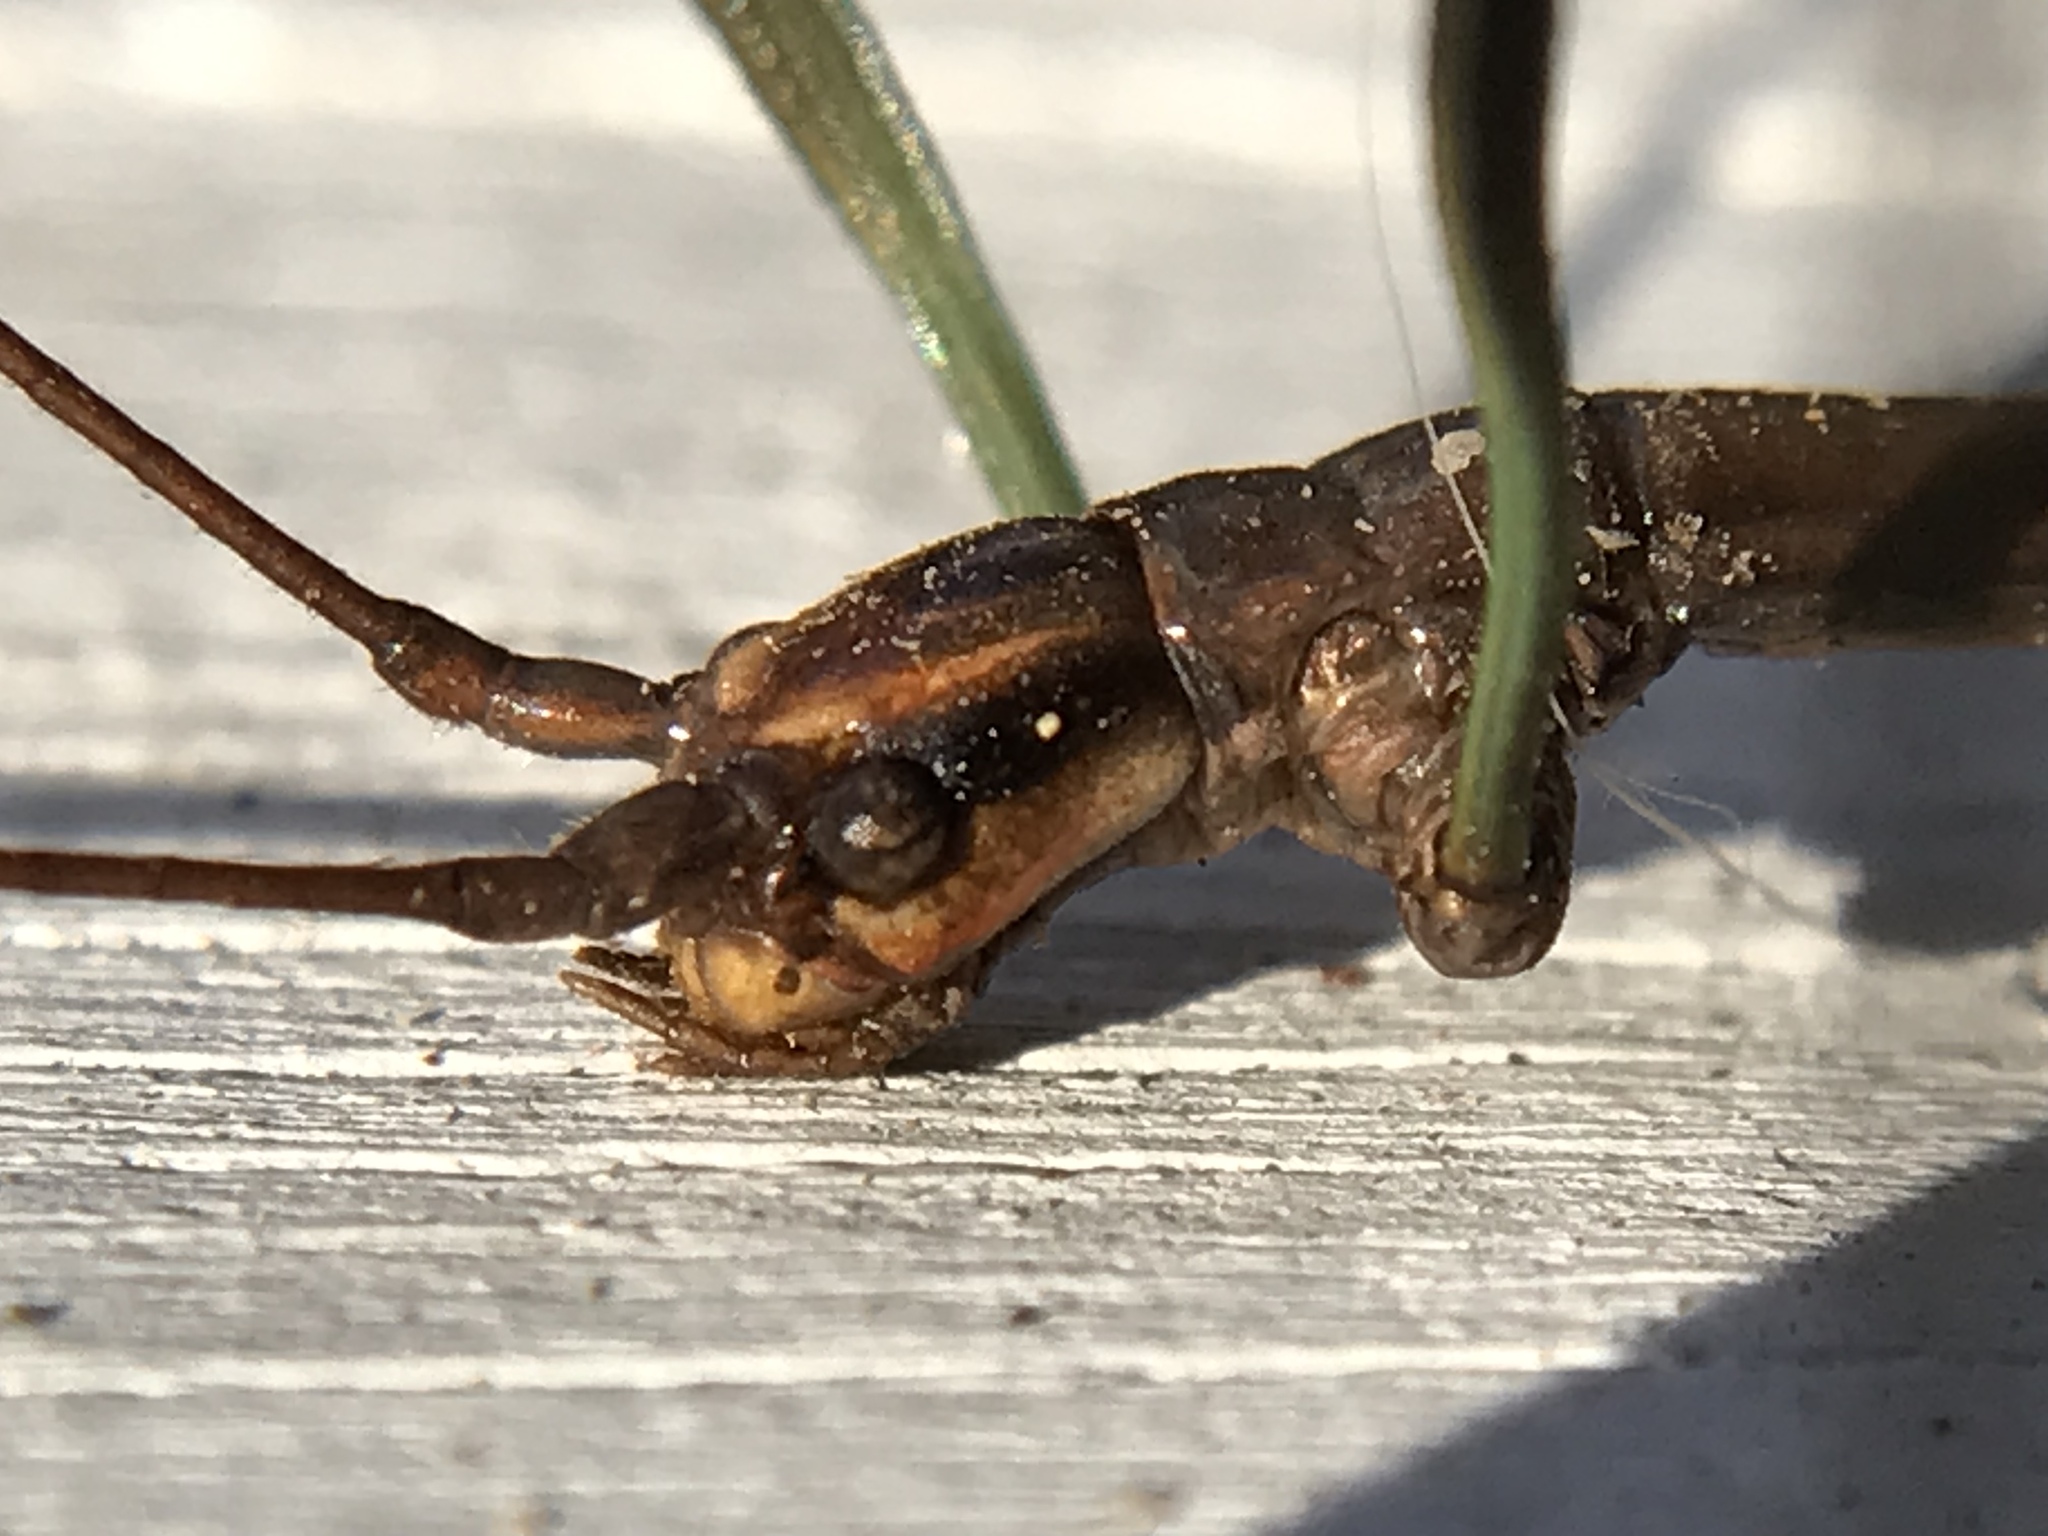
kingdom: Animalia
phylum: Arthropoda
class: Insecta
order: Phasmida
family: Diapheromeridae
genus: Diapheromera
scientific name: Diapheromera femorata
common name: Common american walkingstick
